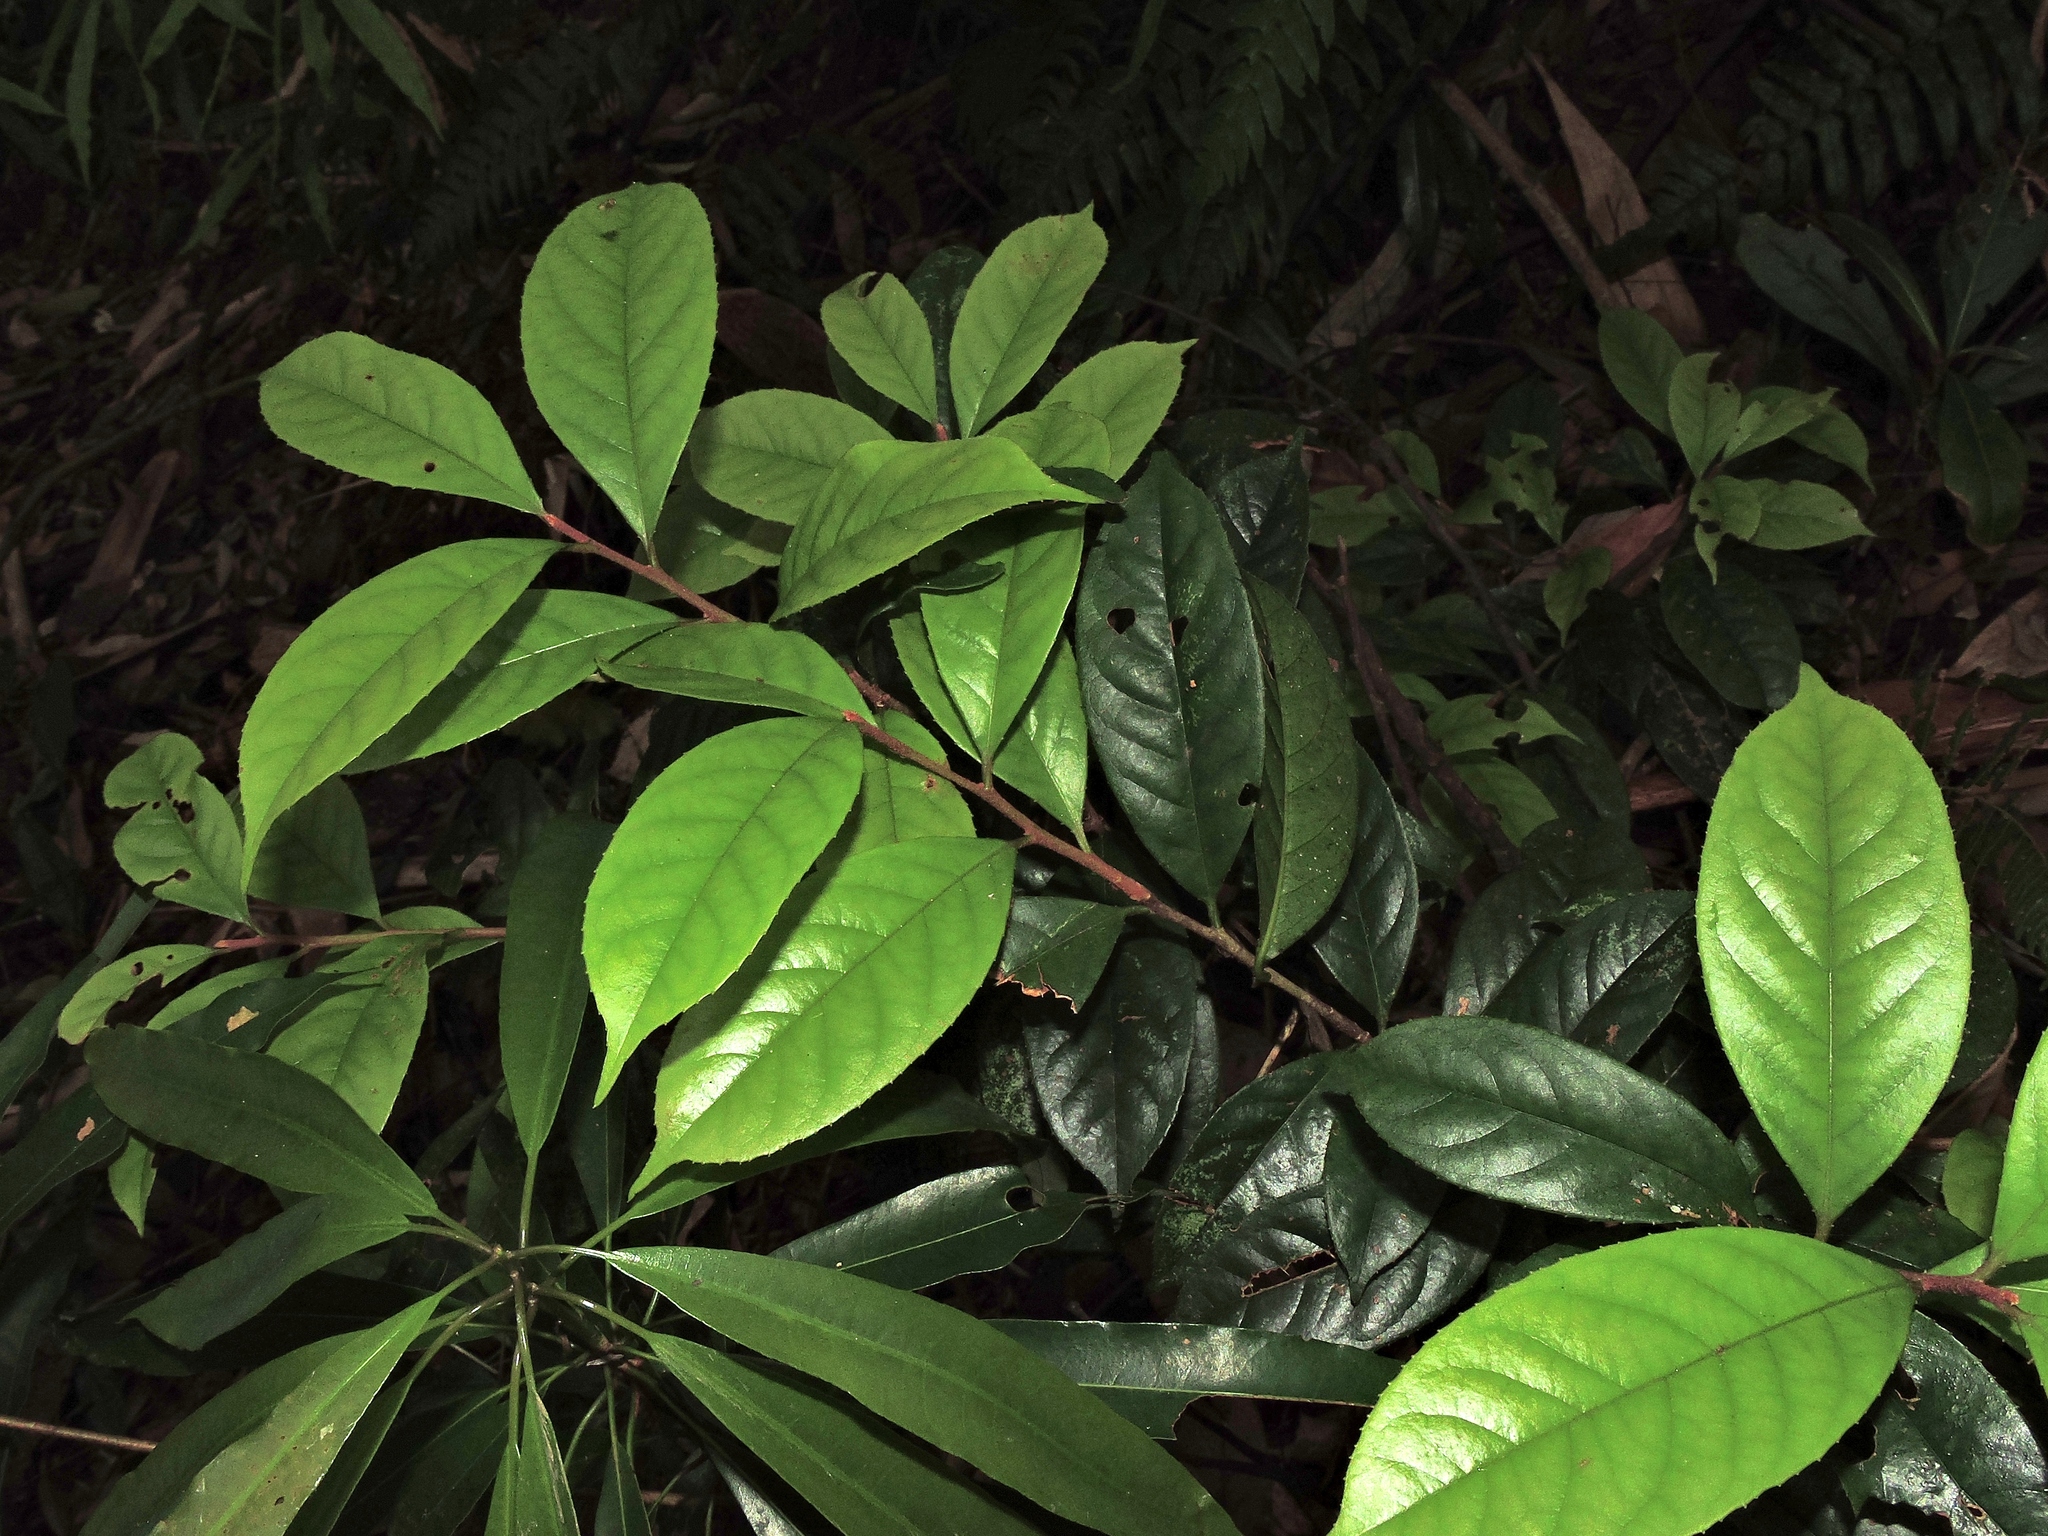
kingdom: Plantae
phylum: Tracheophyta
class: Magnoliopsida
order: Ericales
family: Symplocaceae
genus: Symplocos
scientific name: Symplocos theifolia
